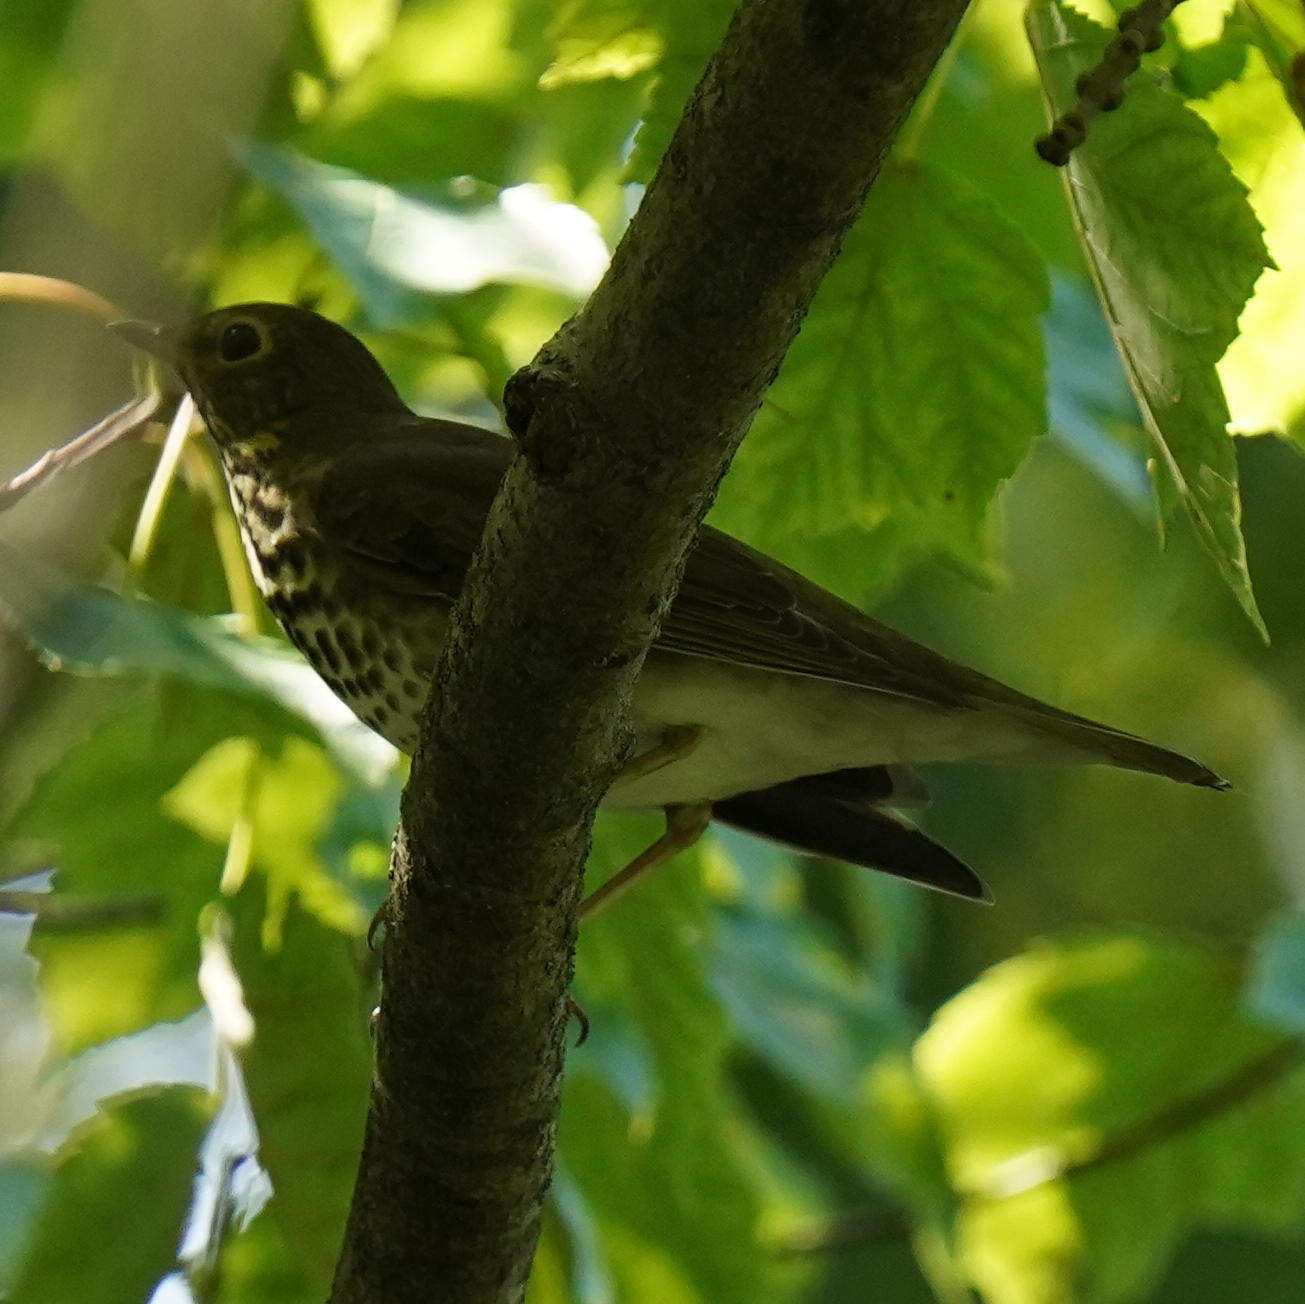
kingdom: Animalia
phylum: Chordata
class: Aves
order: Passeriformes
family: Turdidae
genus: Catharus
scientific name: Catharus ustulatus
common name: Swainson's thrush
